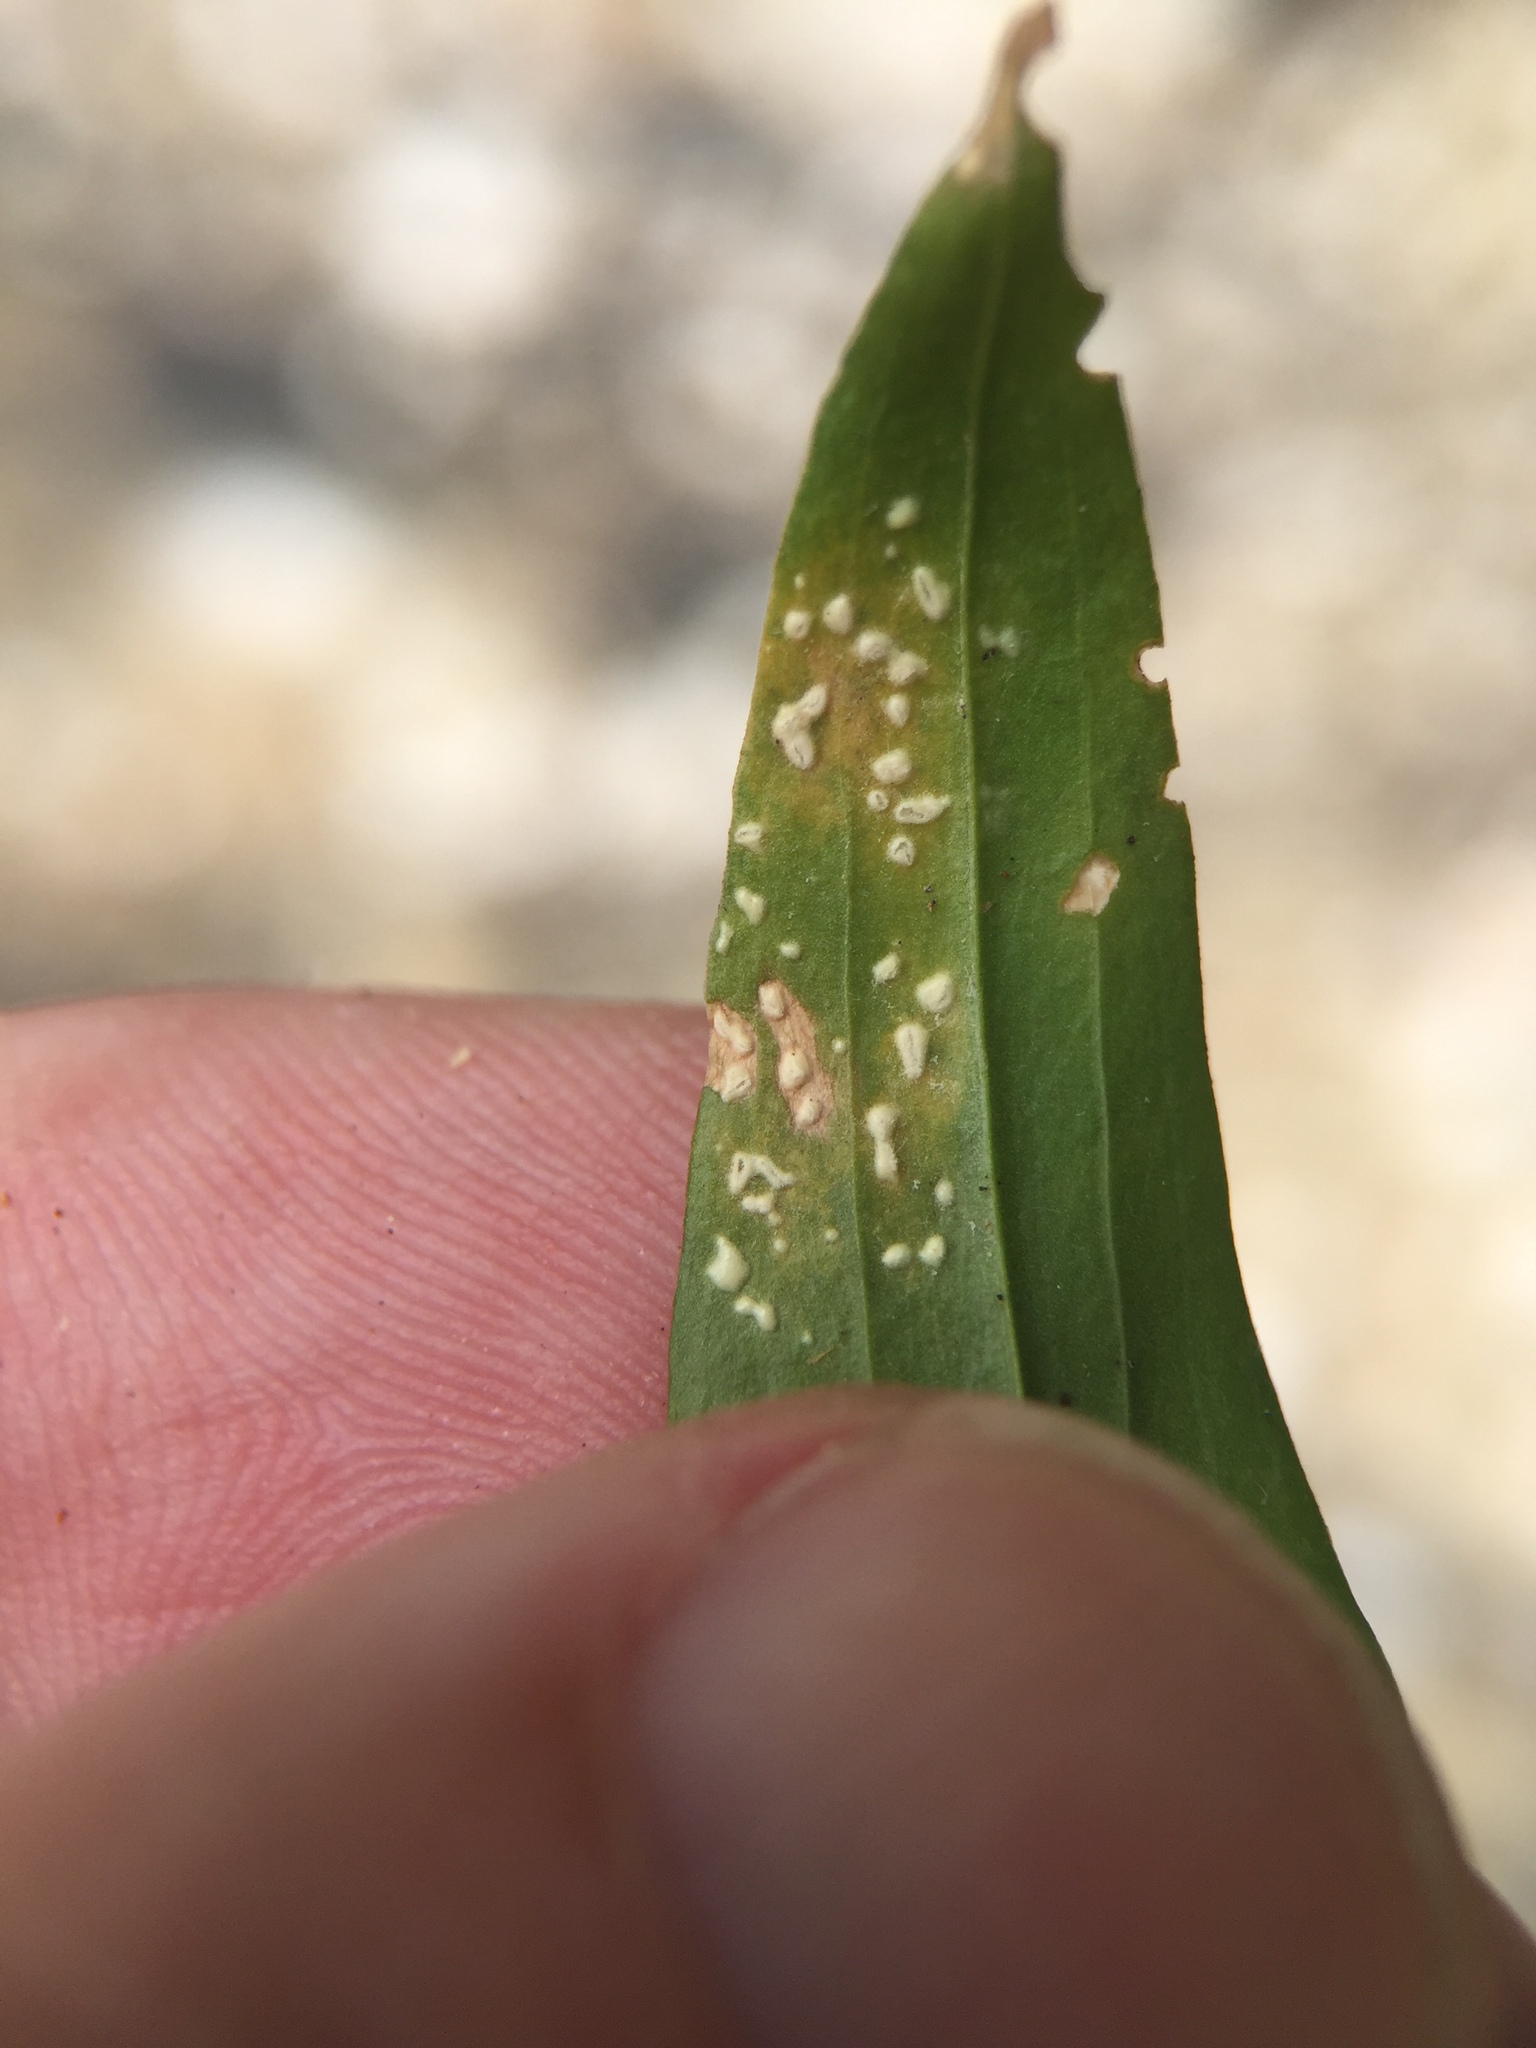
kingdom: Chromista
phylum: Oomycota
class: Peronosporea
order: Albuginales
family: Albuginaceae
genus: Pustula
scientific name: Pustula centaurii
